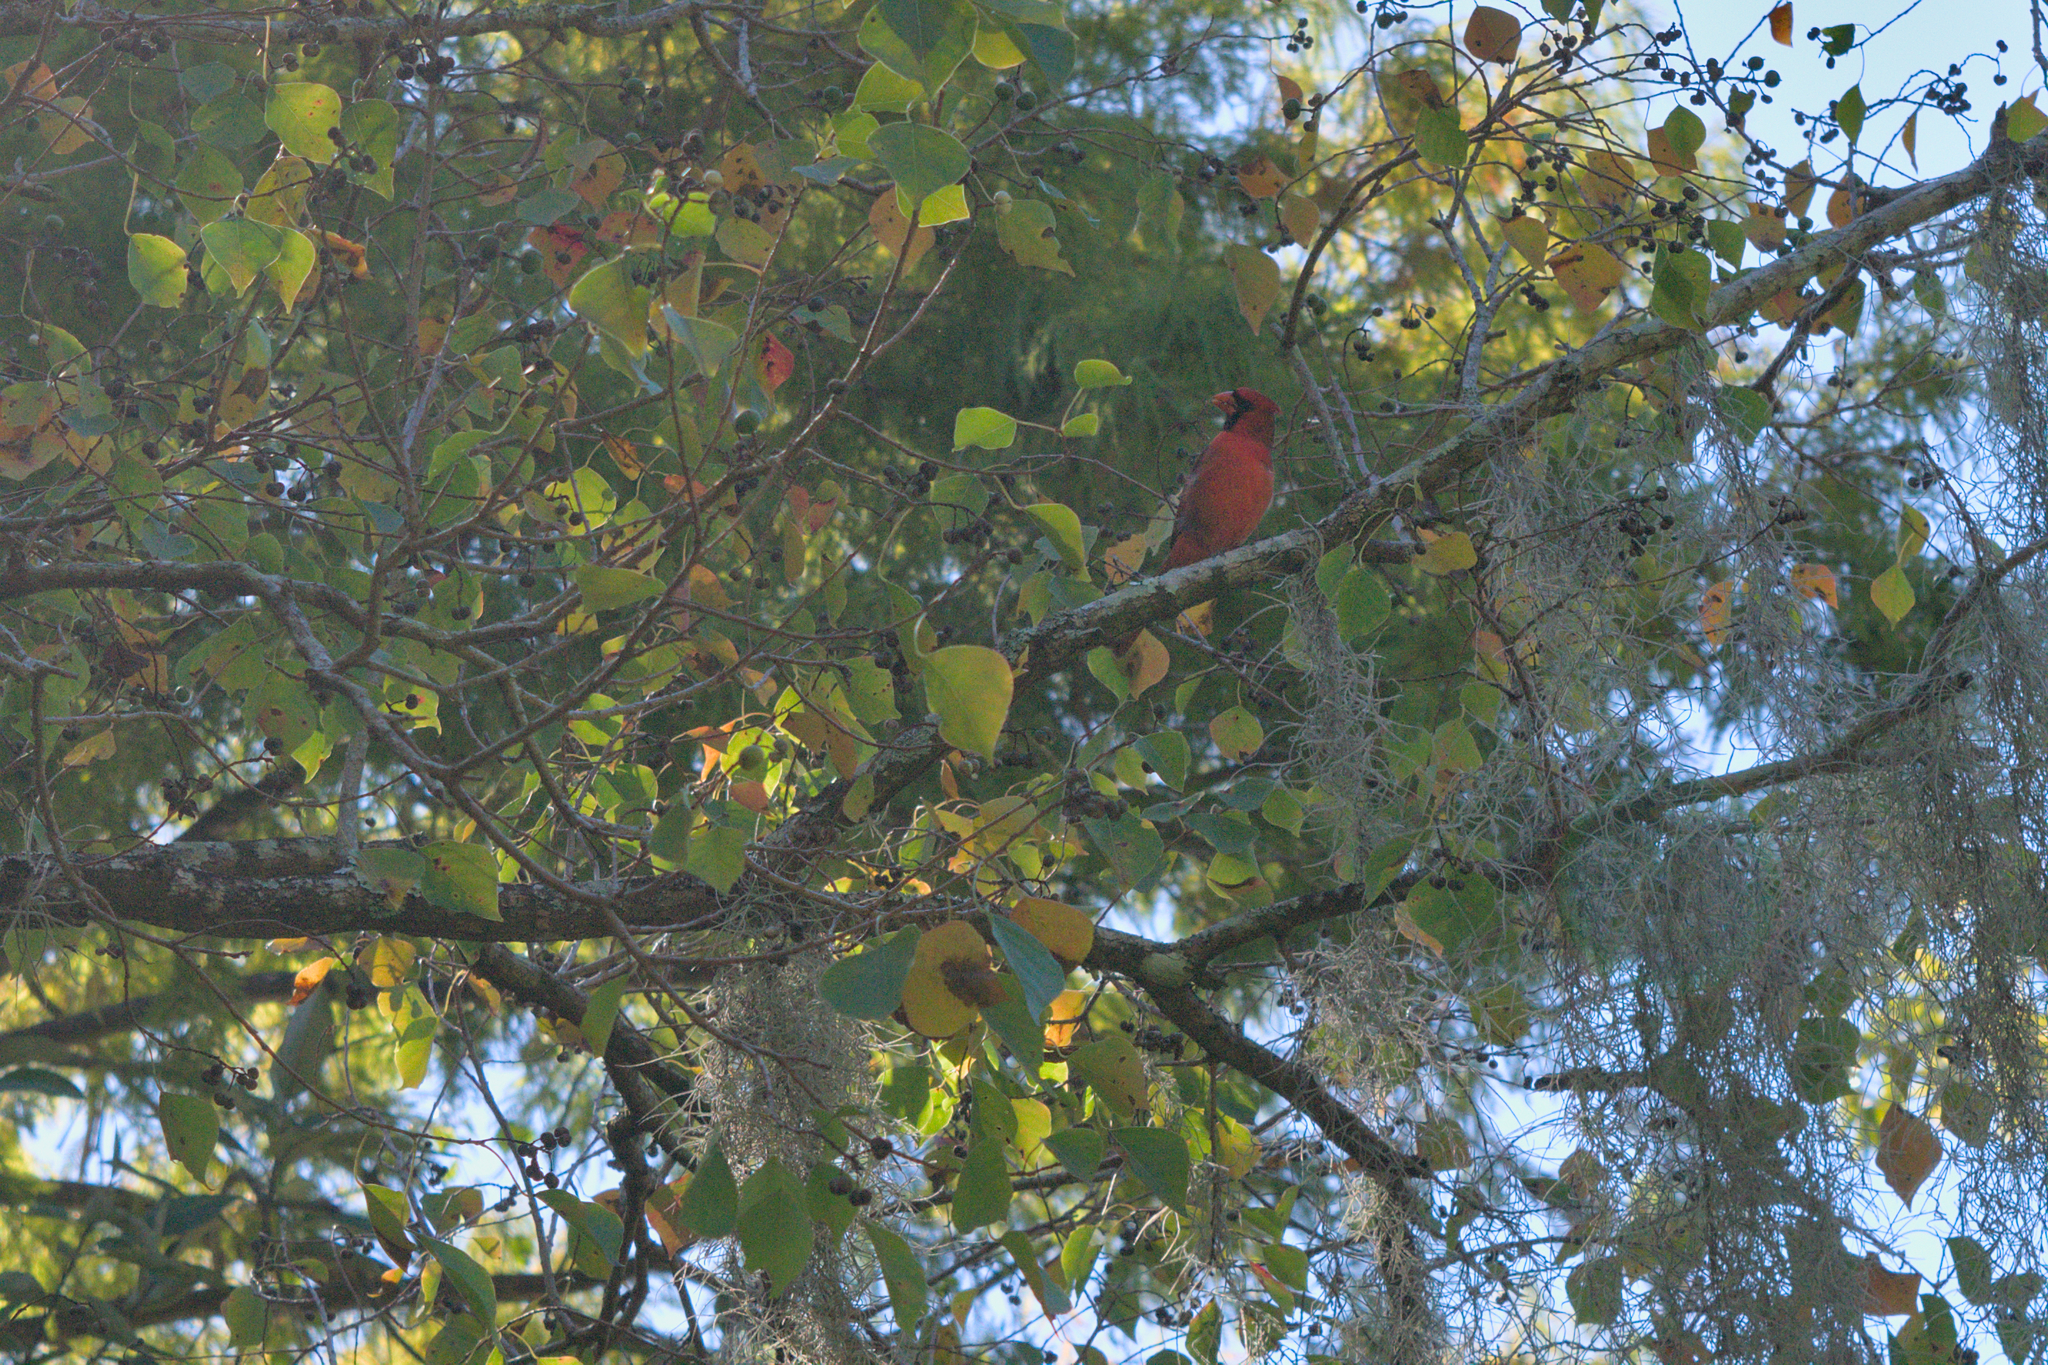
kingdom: Animalia
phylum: Chordata
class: Aves
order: Passeriformes
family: Cardinalidae
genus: Cardinalis
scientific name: Cardinalis cardinalis
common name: Northern cardinal
